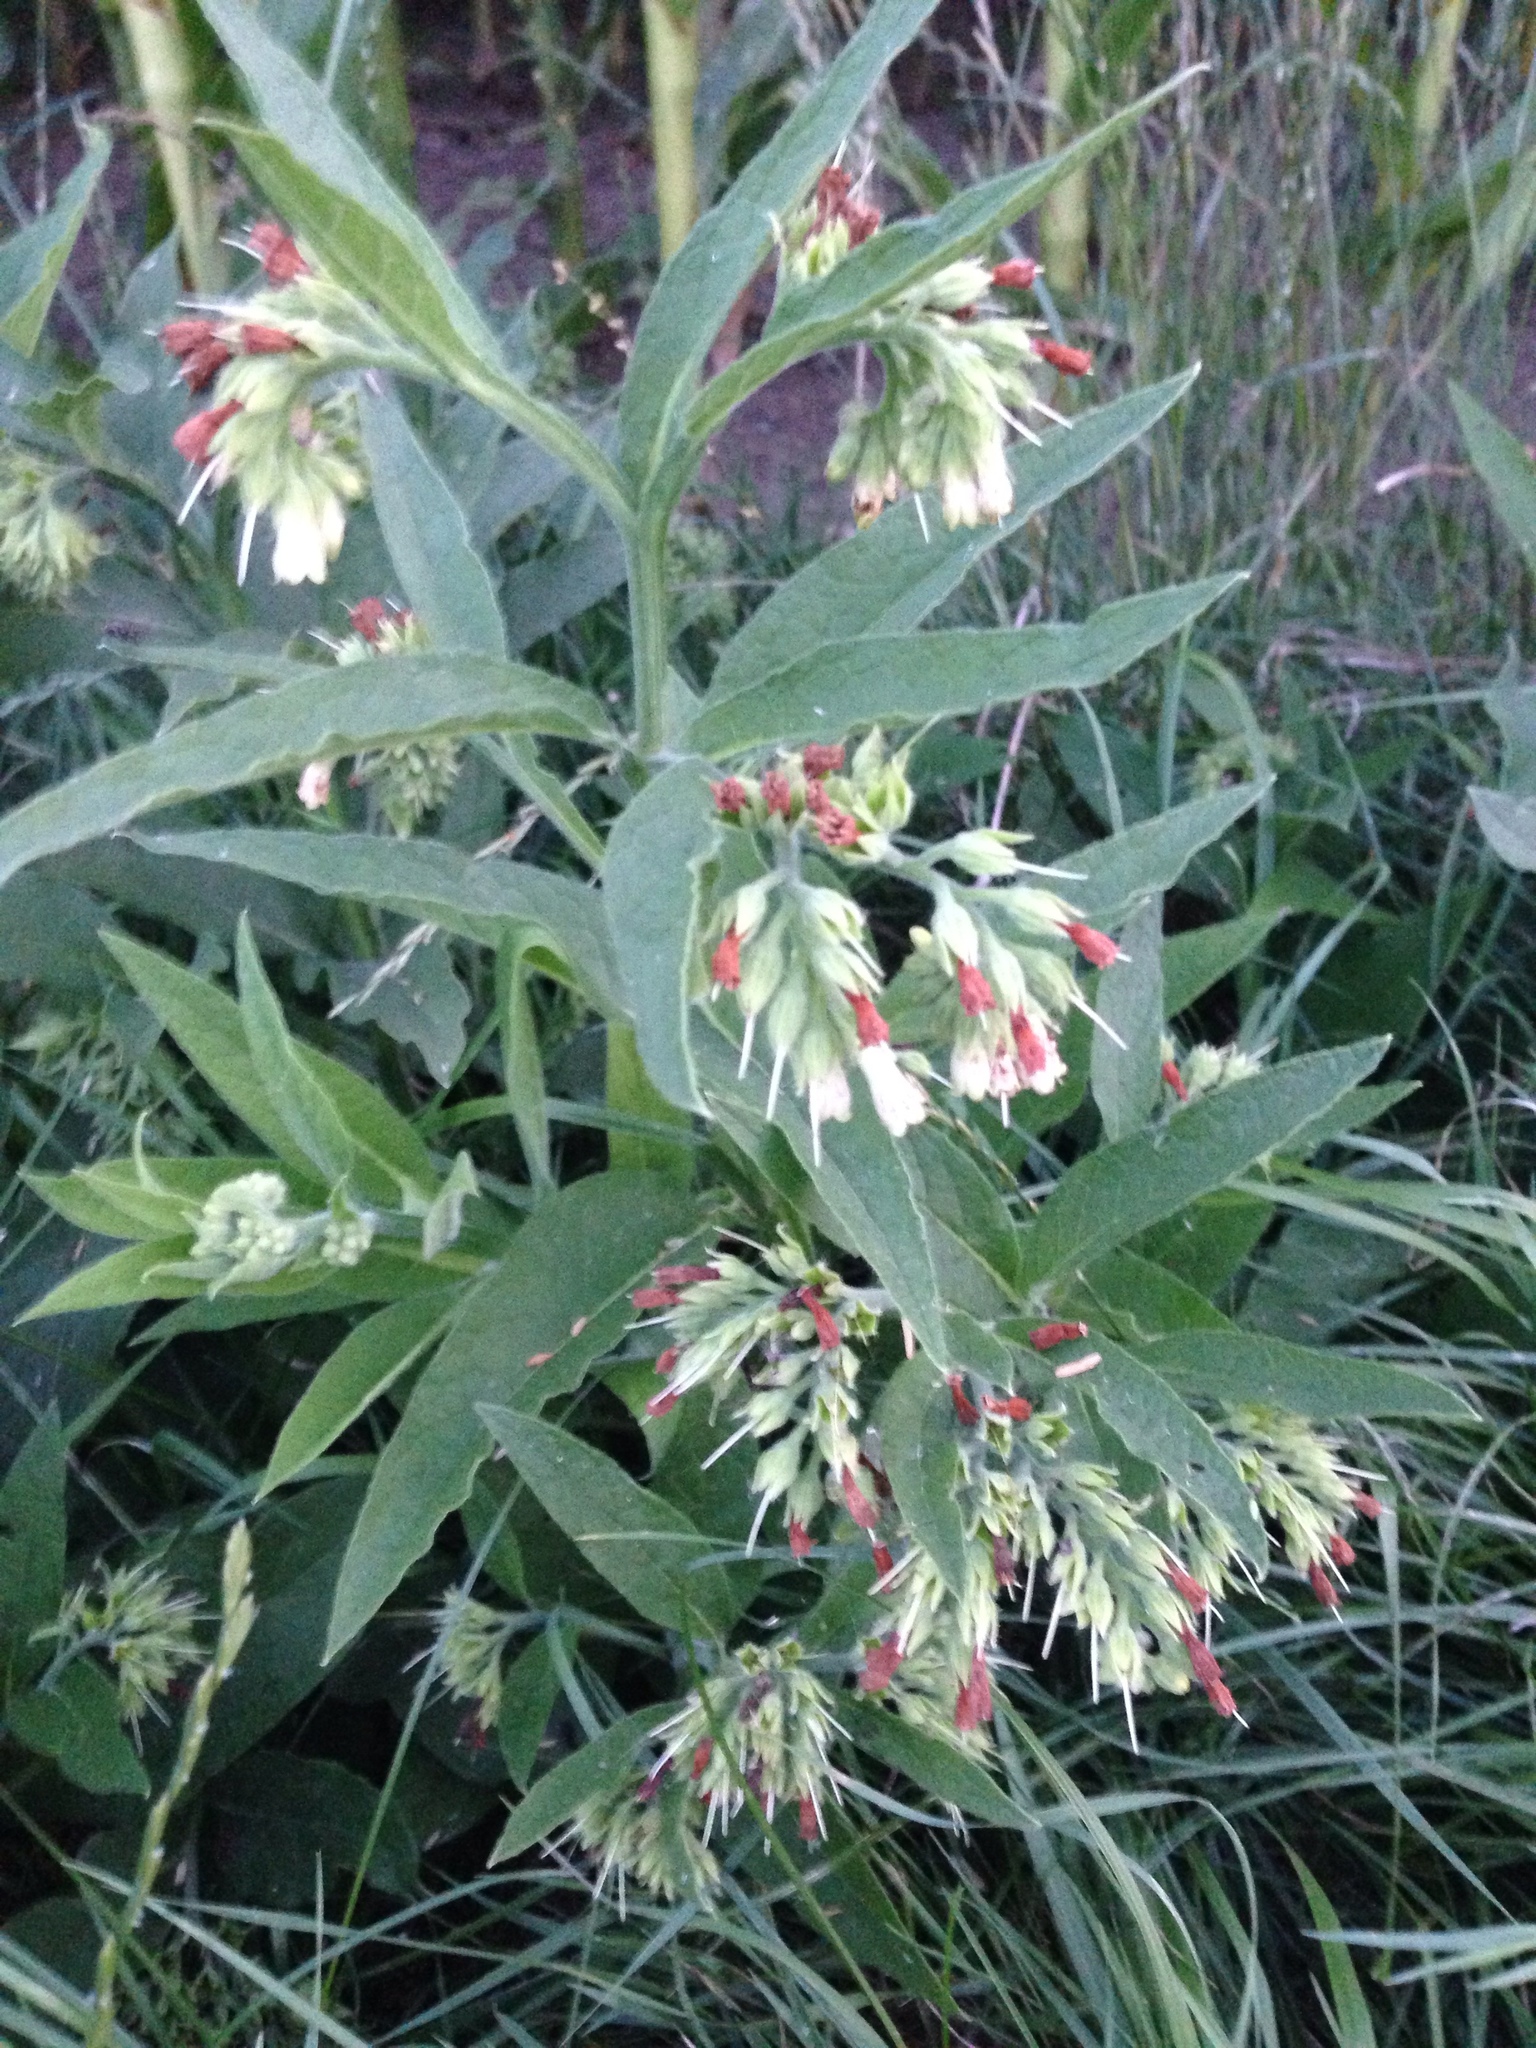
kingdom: Plantae
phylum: Tracheophyta
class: Magnoliopsida
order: Boraginales
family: Boraginaceae
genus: Symphytum
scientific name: Symphytum officinale
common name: Common comfrey
